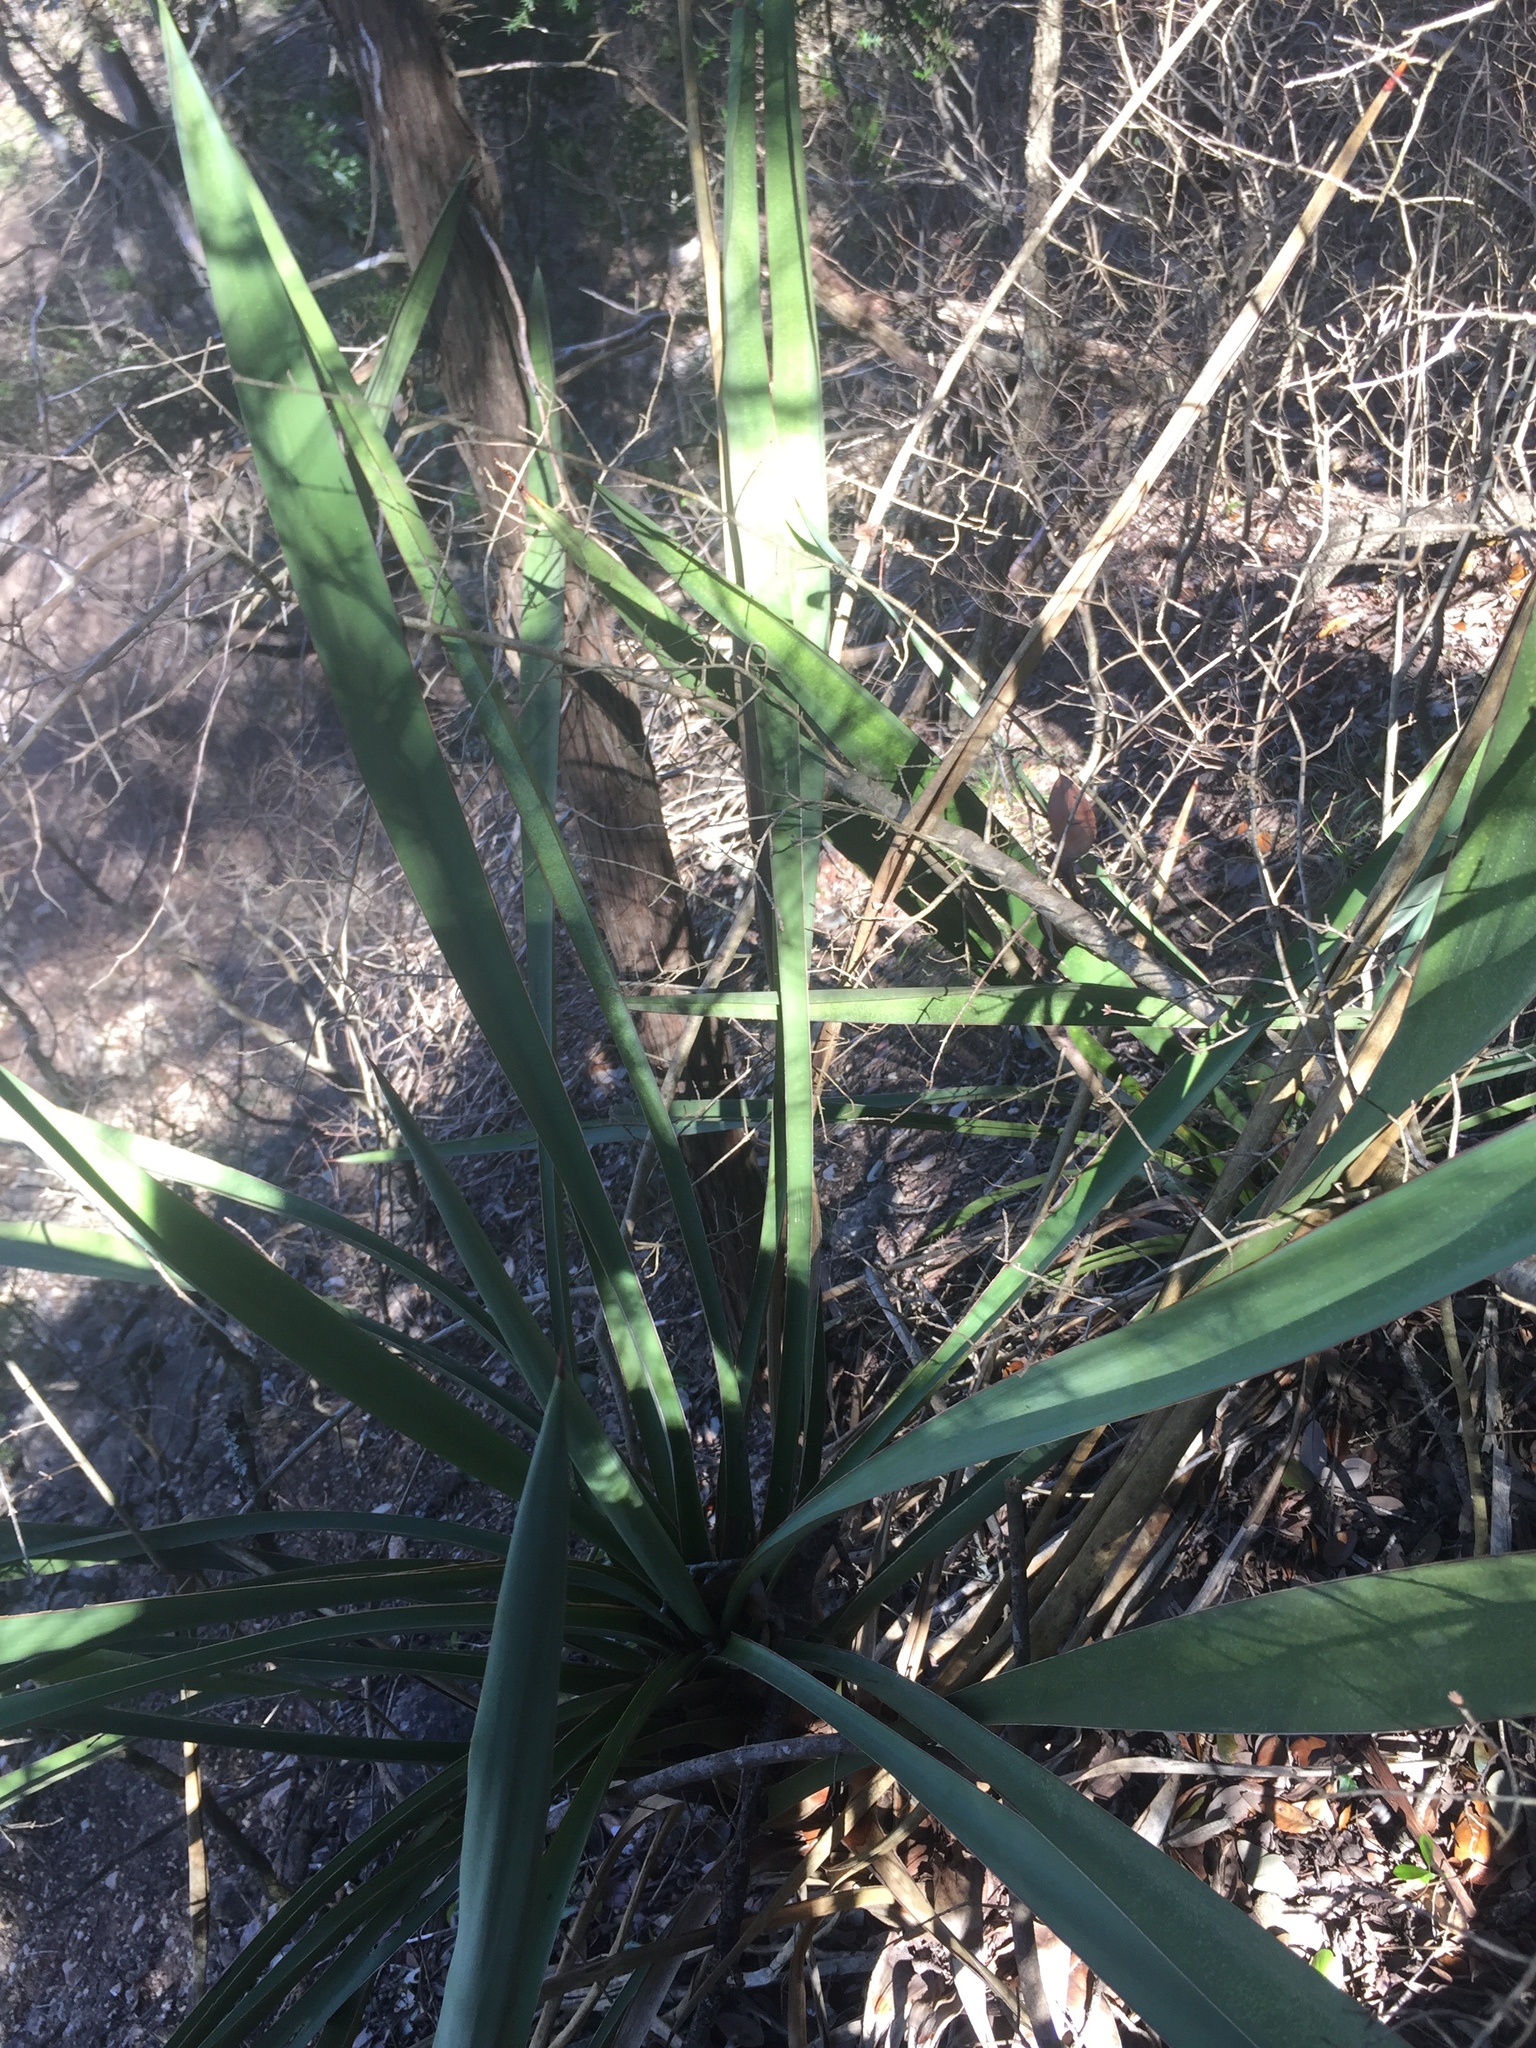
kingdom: Plantae
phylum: Tracheophyta
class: Liliopsida
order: Asparagales
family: Asparagaceae
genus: Yucca
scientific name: Yucca rupicola
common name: Twisted-leaf spanish-dagger
